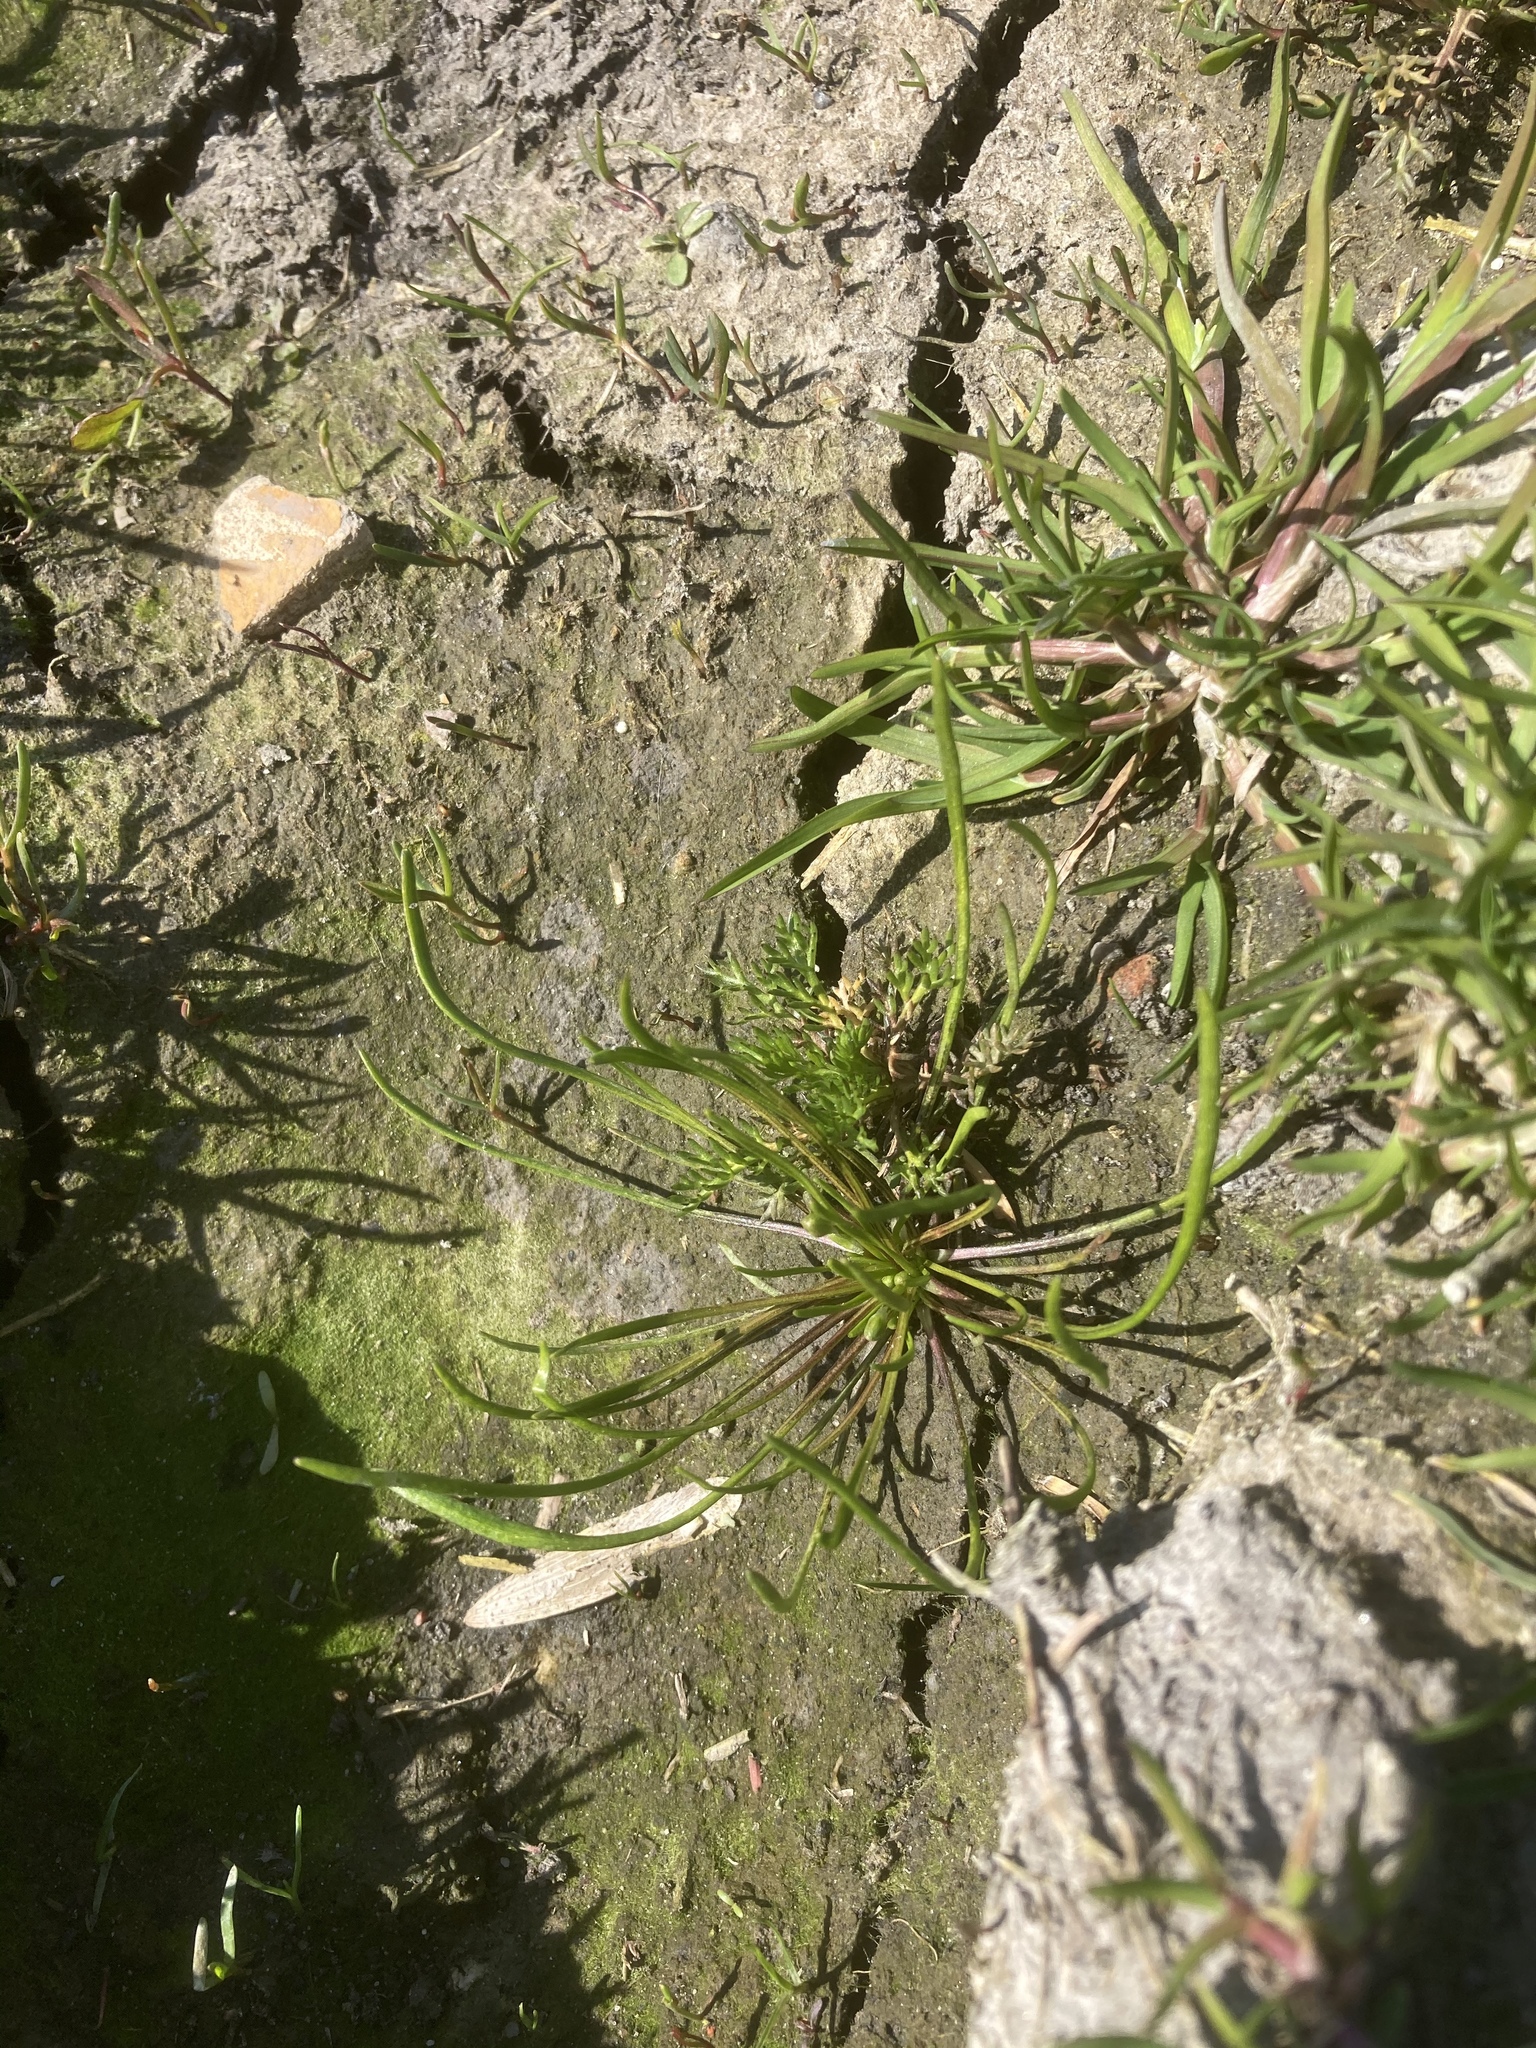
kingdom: Plantae
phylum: Tracheophyta
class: Magnoliopsida
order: Ranunculales
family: Ranunculaceae
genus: Myosurus
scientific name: Myosurus minimus
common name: Mousetail
